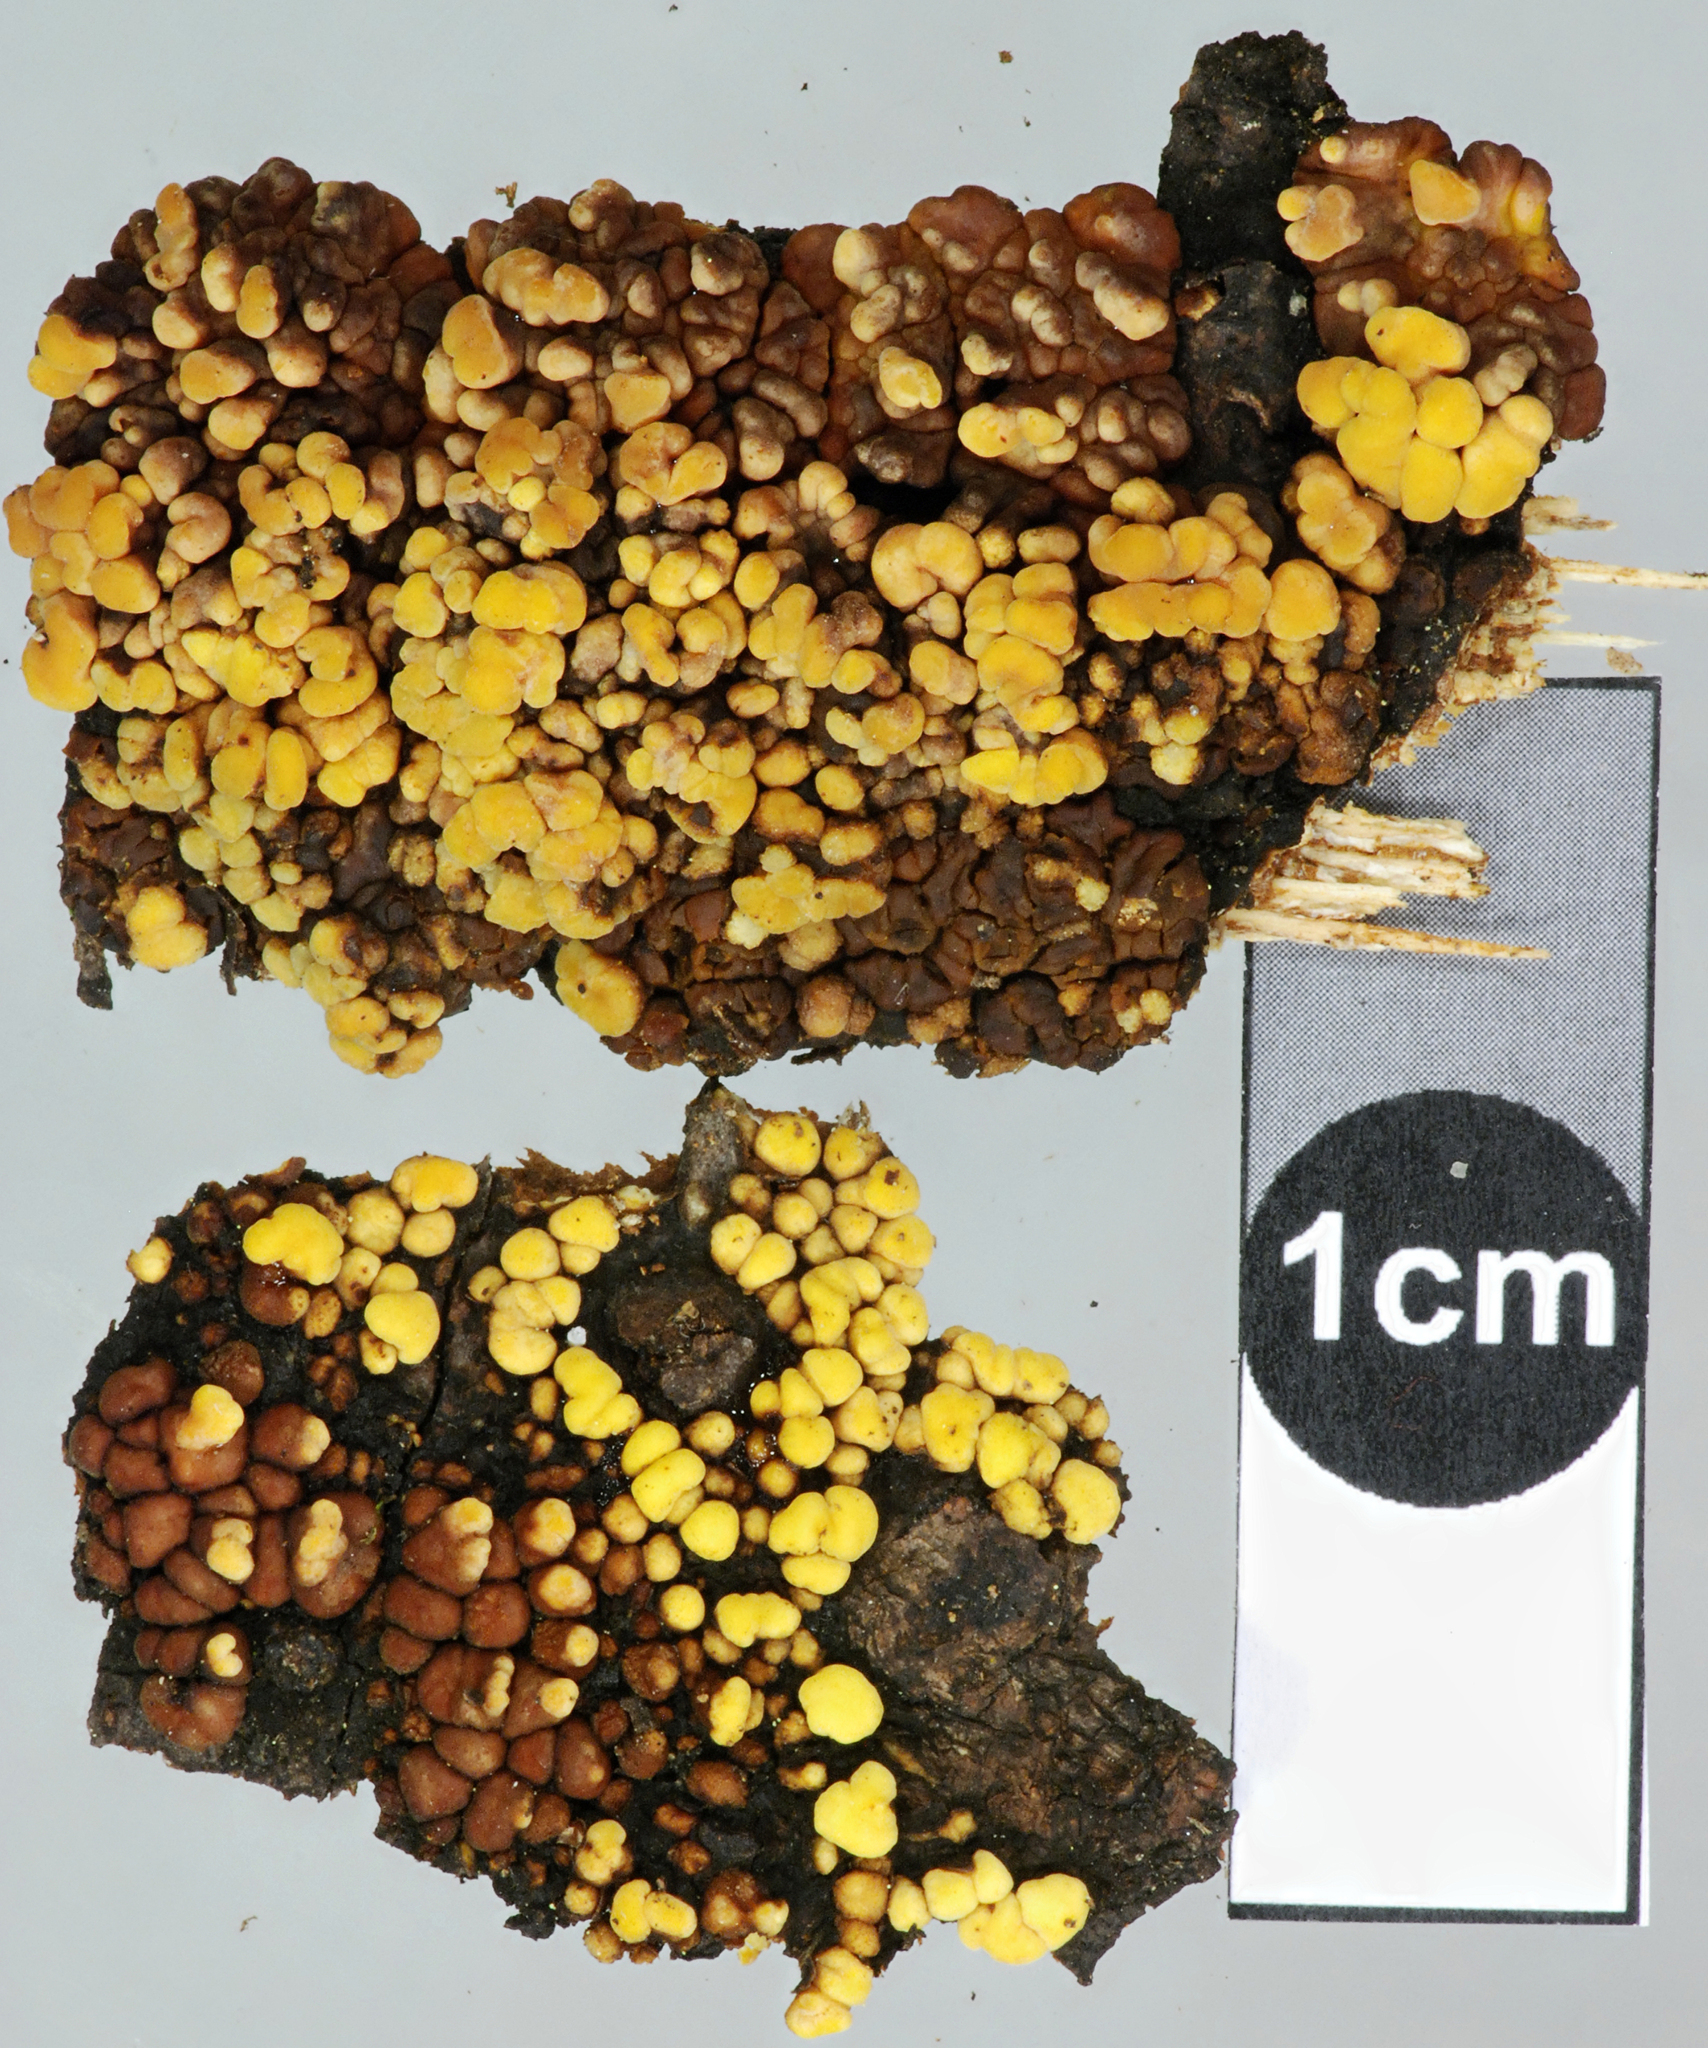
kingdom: Fungi
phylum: Basidiomycota
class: Agaricomycetes
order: Russulales
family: Stereaceae
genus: Aleurodiscus
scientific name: Aleurodiscus berggrenii
